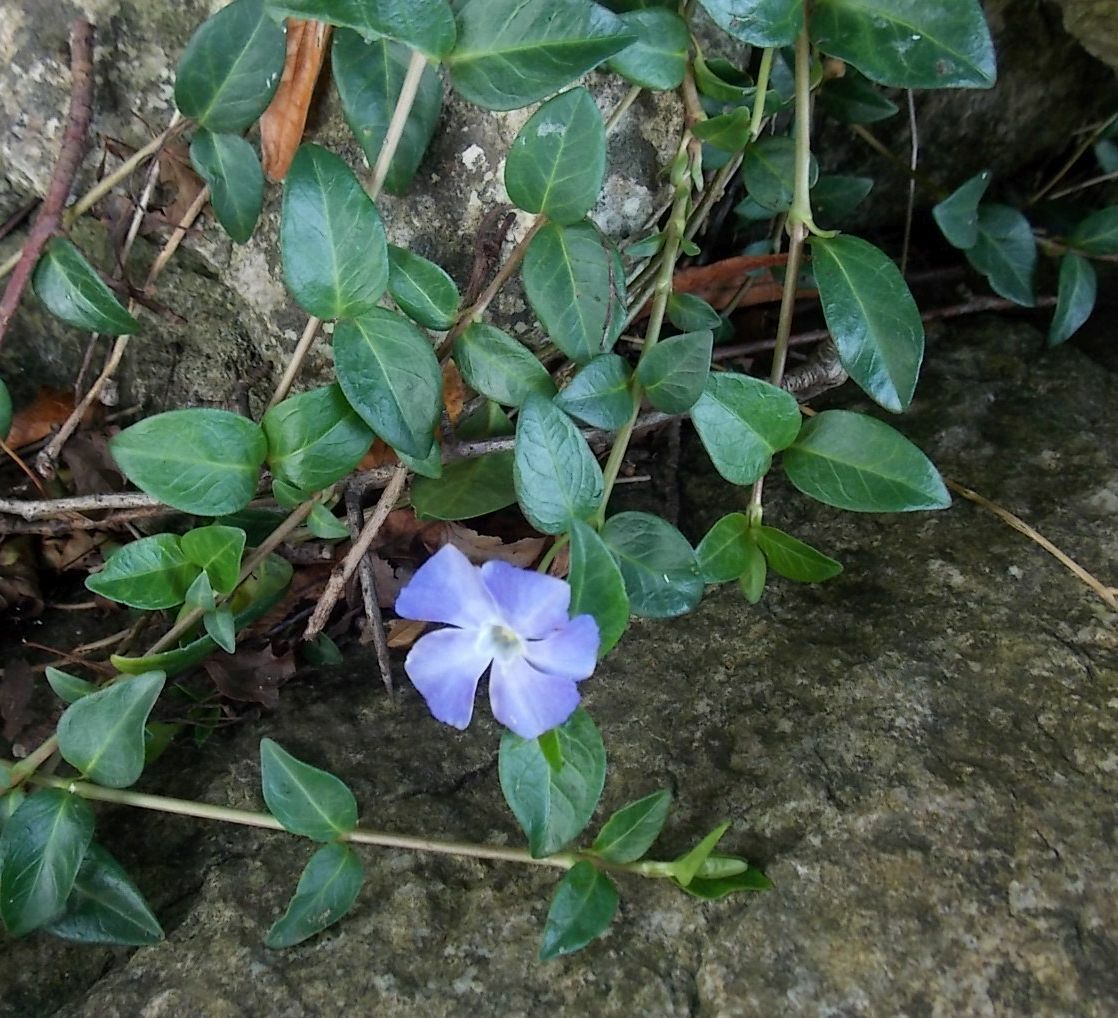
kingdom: Plantae
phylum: Tracheophyta
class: Magnoliopsida
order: Gentianales
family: Apocynaceae
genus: Vinca
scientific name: Vinca minor
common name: Lesser periwinkle
